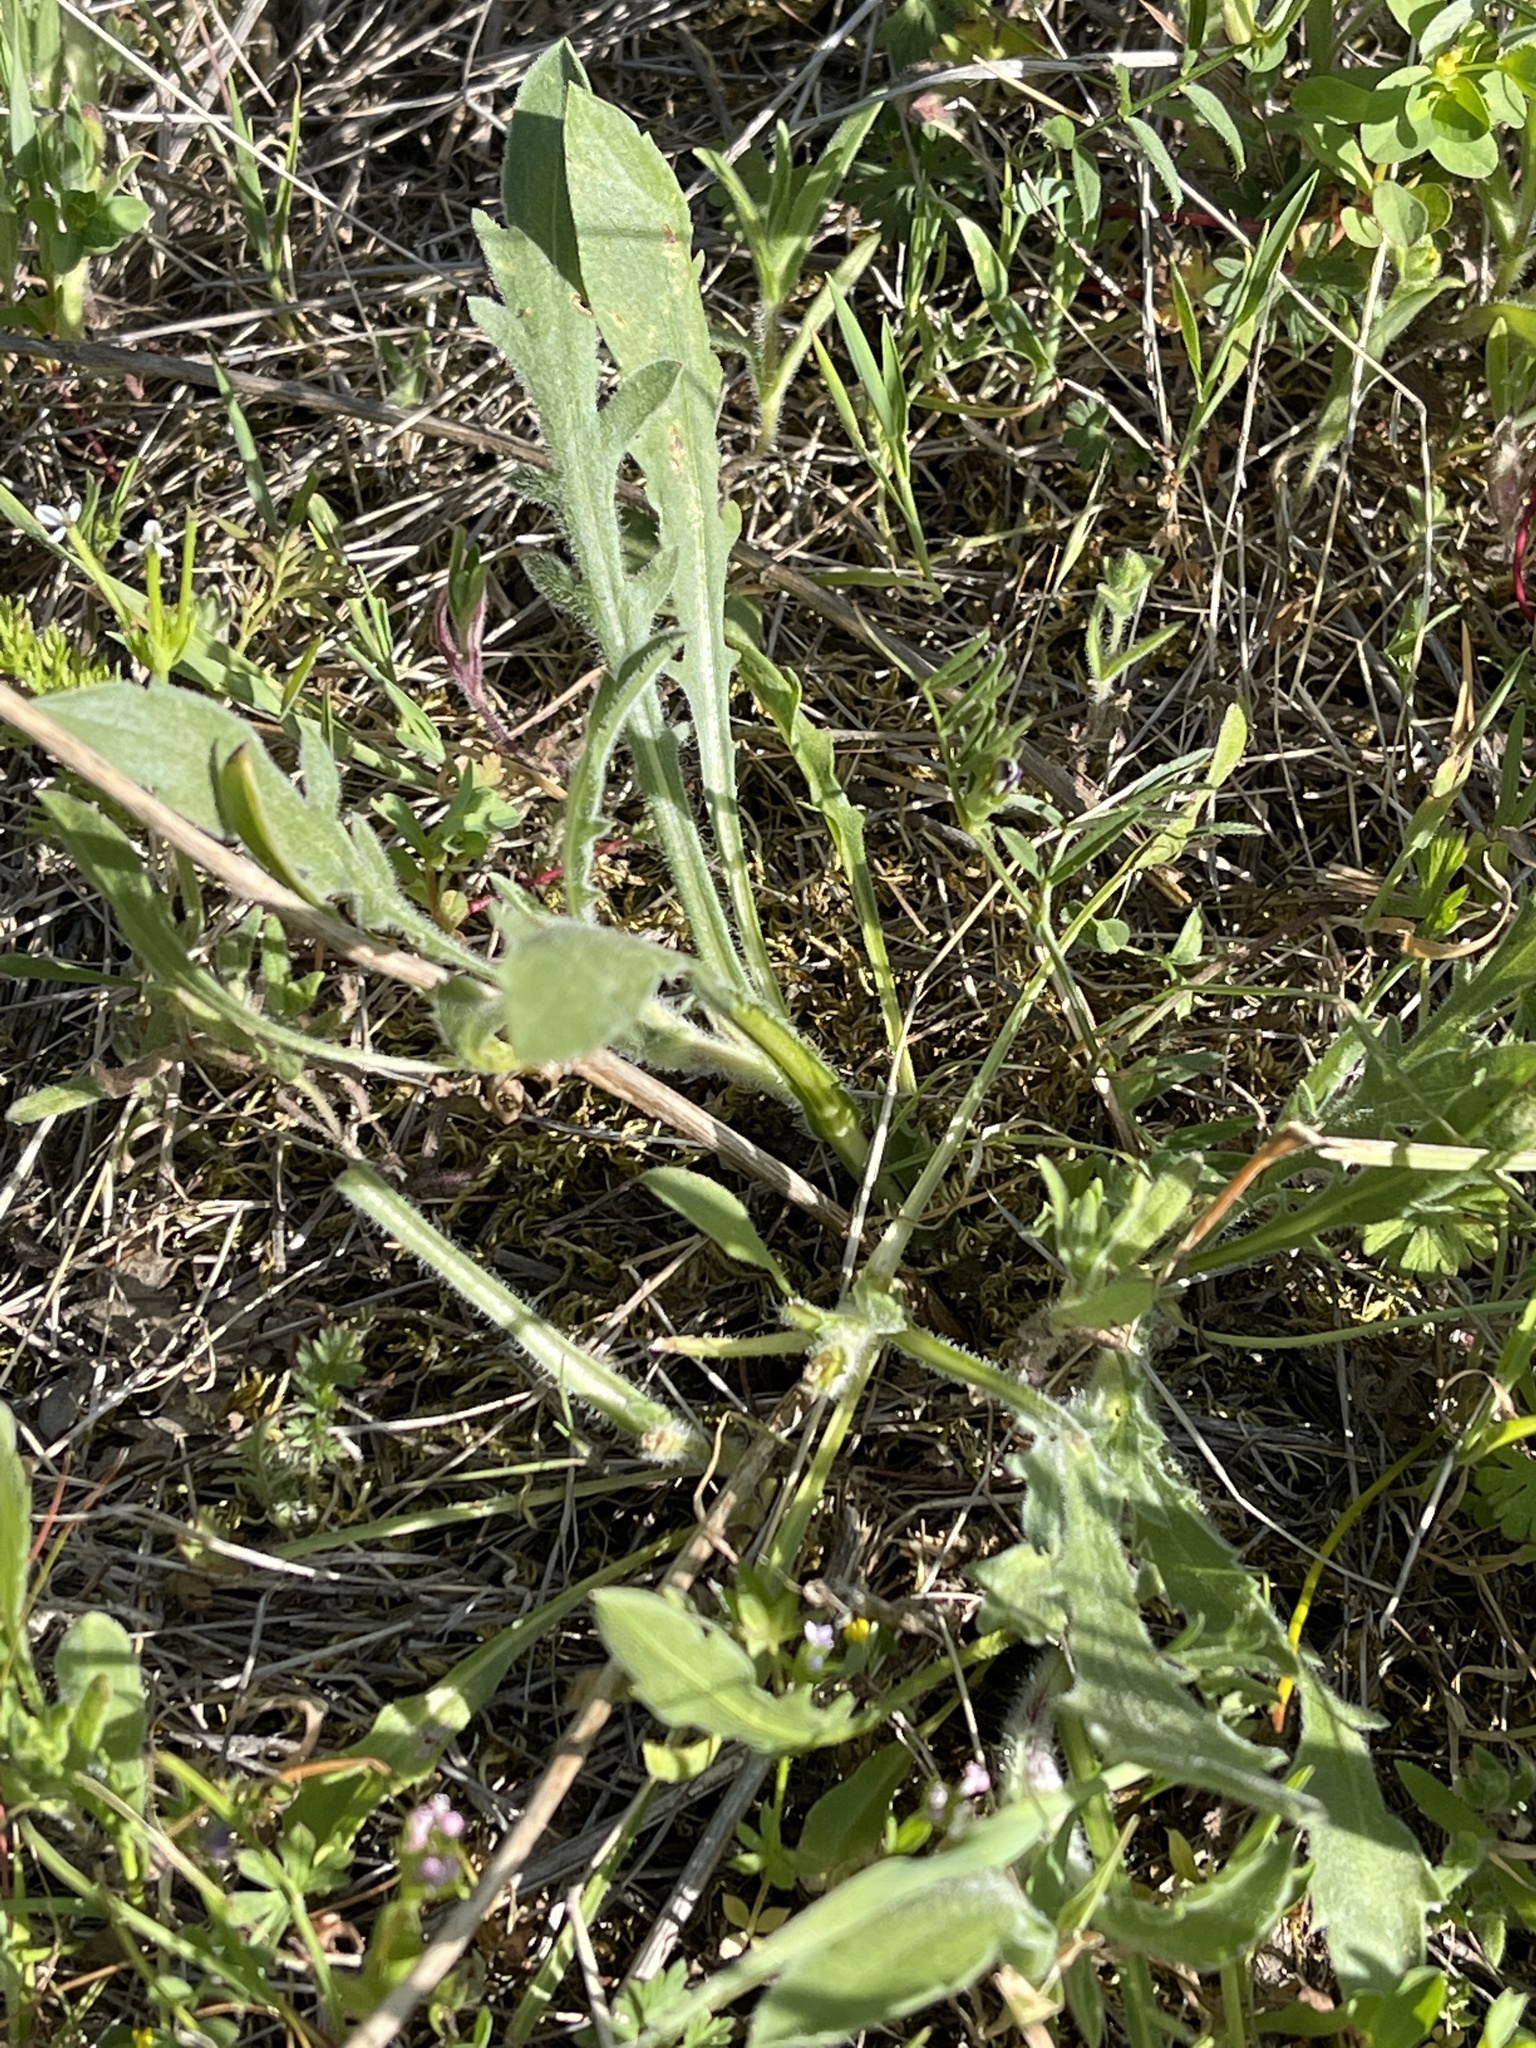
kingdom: Plantae
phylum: Tracheophyta
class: Magnoliopsida
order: Asterales
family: Asteraceae
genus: Grindelia
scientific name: Grindelia hirsutula
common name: Hairy gumweed
